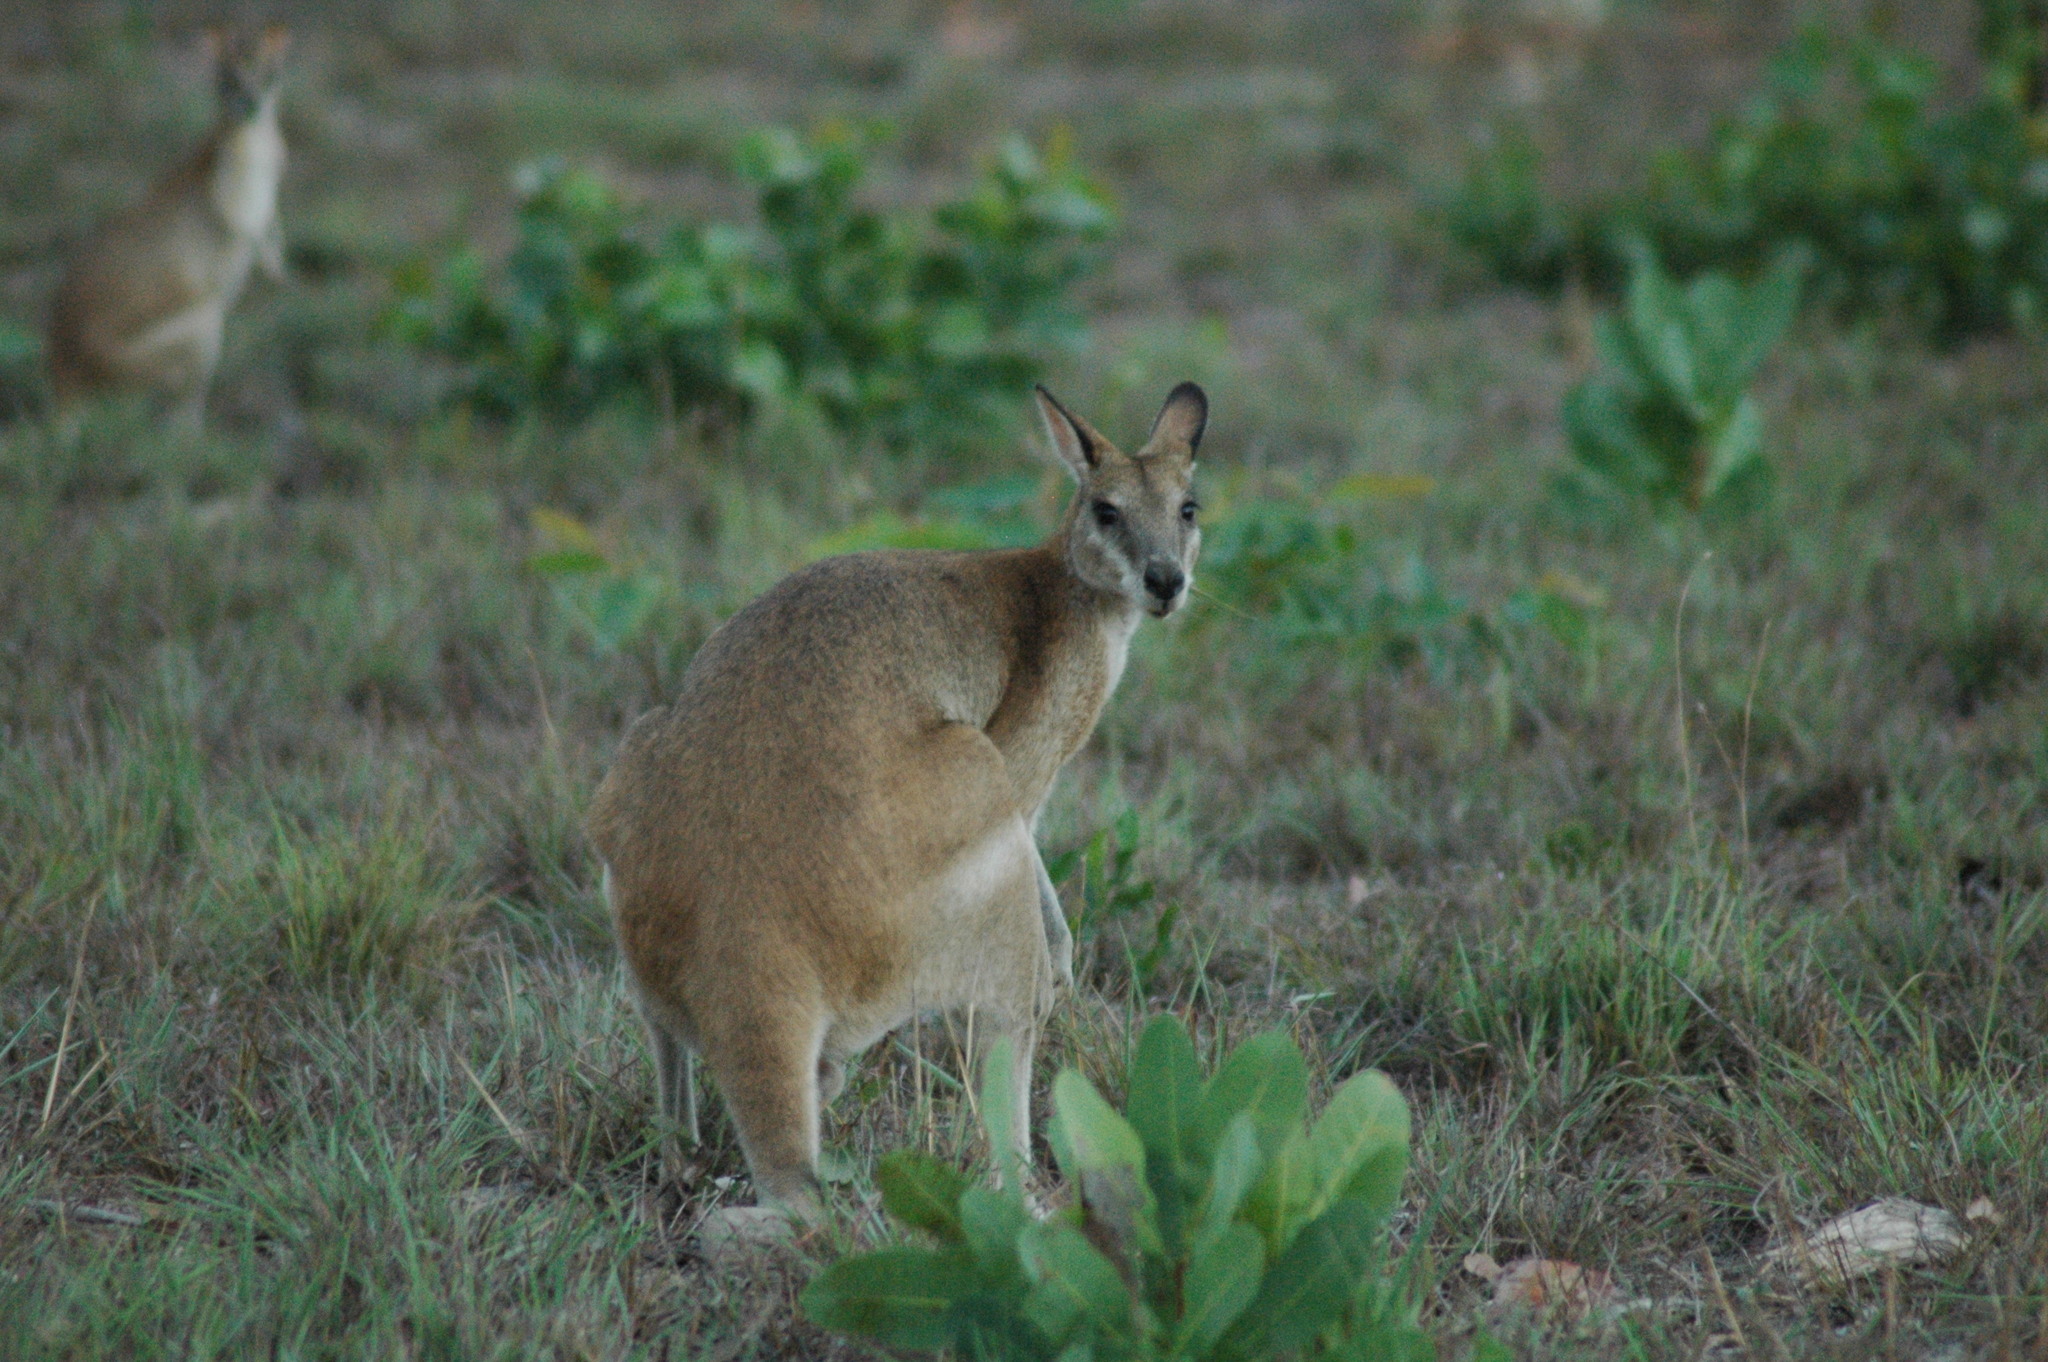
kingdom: Animalia
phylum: Chordata
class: Mammalia
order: Diprotodontia
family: Macropodidae
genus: Macropus
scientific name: Macropus agilis
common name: Agile wallaby
